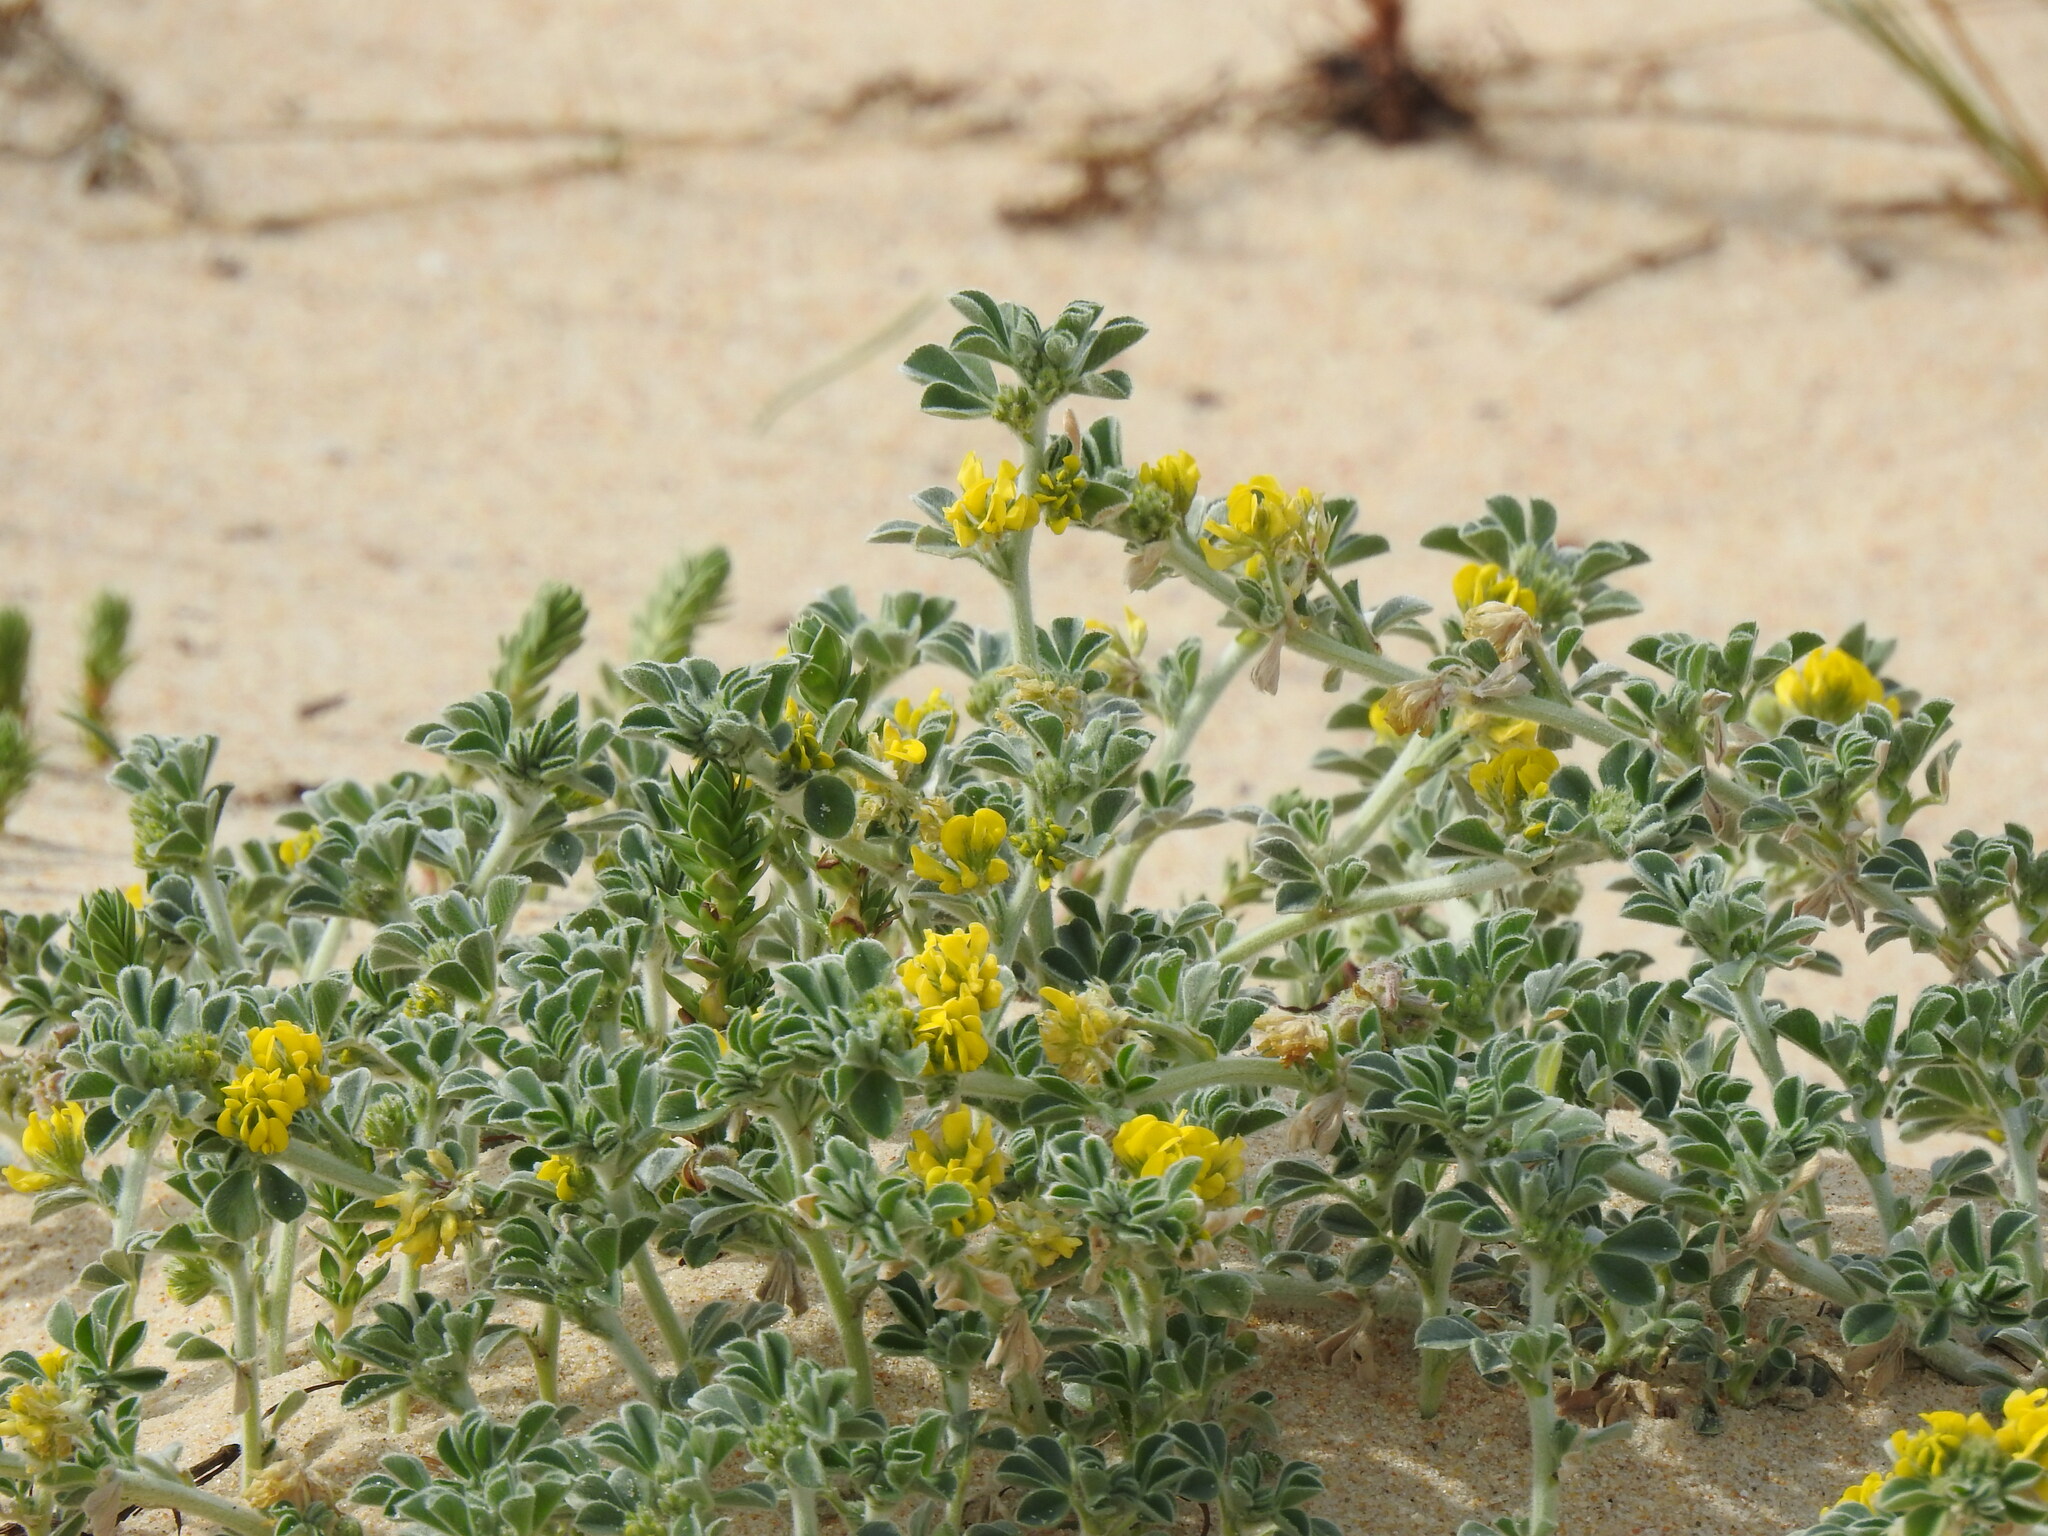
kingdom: Plantae
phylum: Tracheophyta
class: Magnoliopsida
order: Fabales
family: Fabaceae
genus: Medicago
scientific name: Medicago marina
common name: Sea medick
